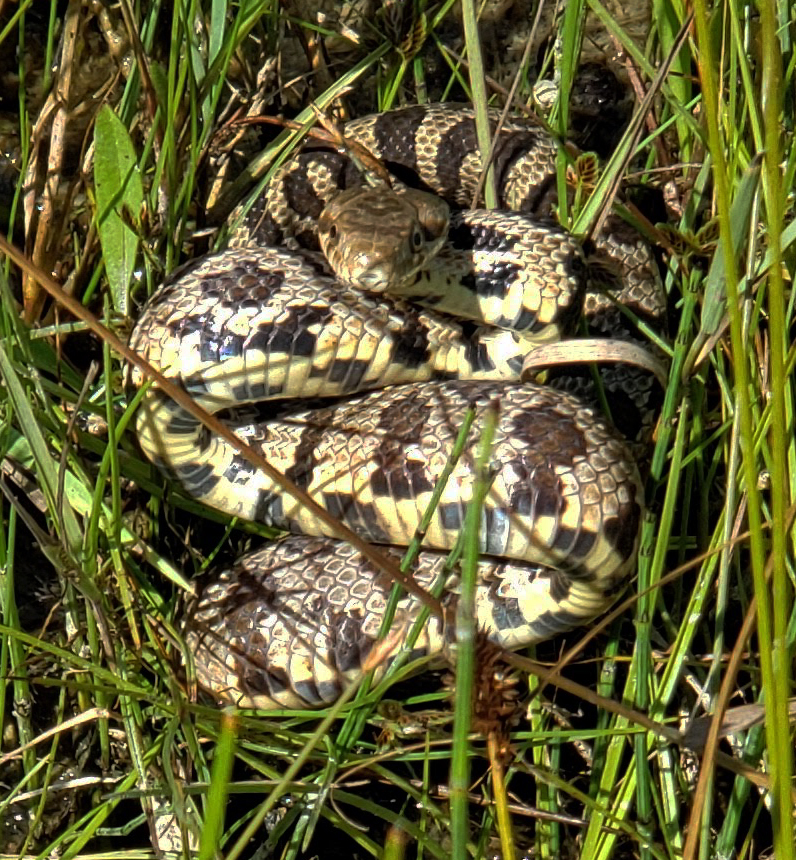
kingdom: Animalia
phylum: Chordata
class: Squamata
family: Colubridae
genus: Pantherophis
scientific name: Pantherophis vulpinus
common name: Eastern fox snake
